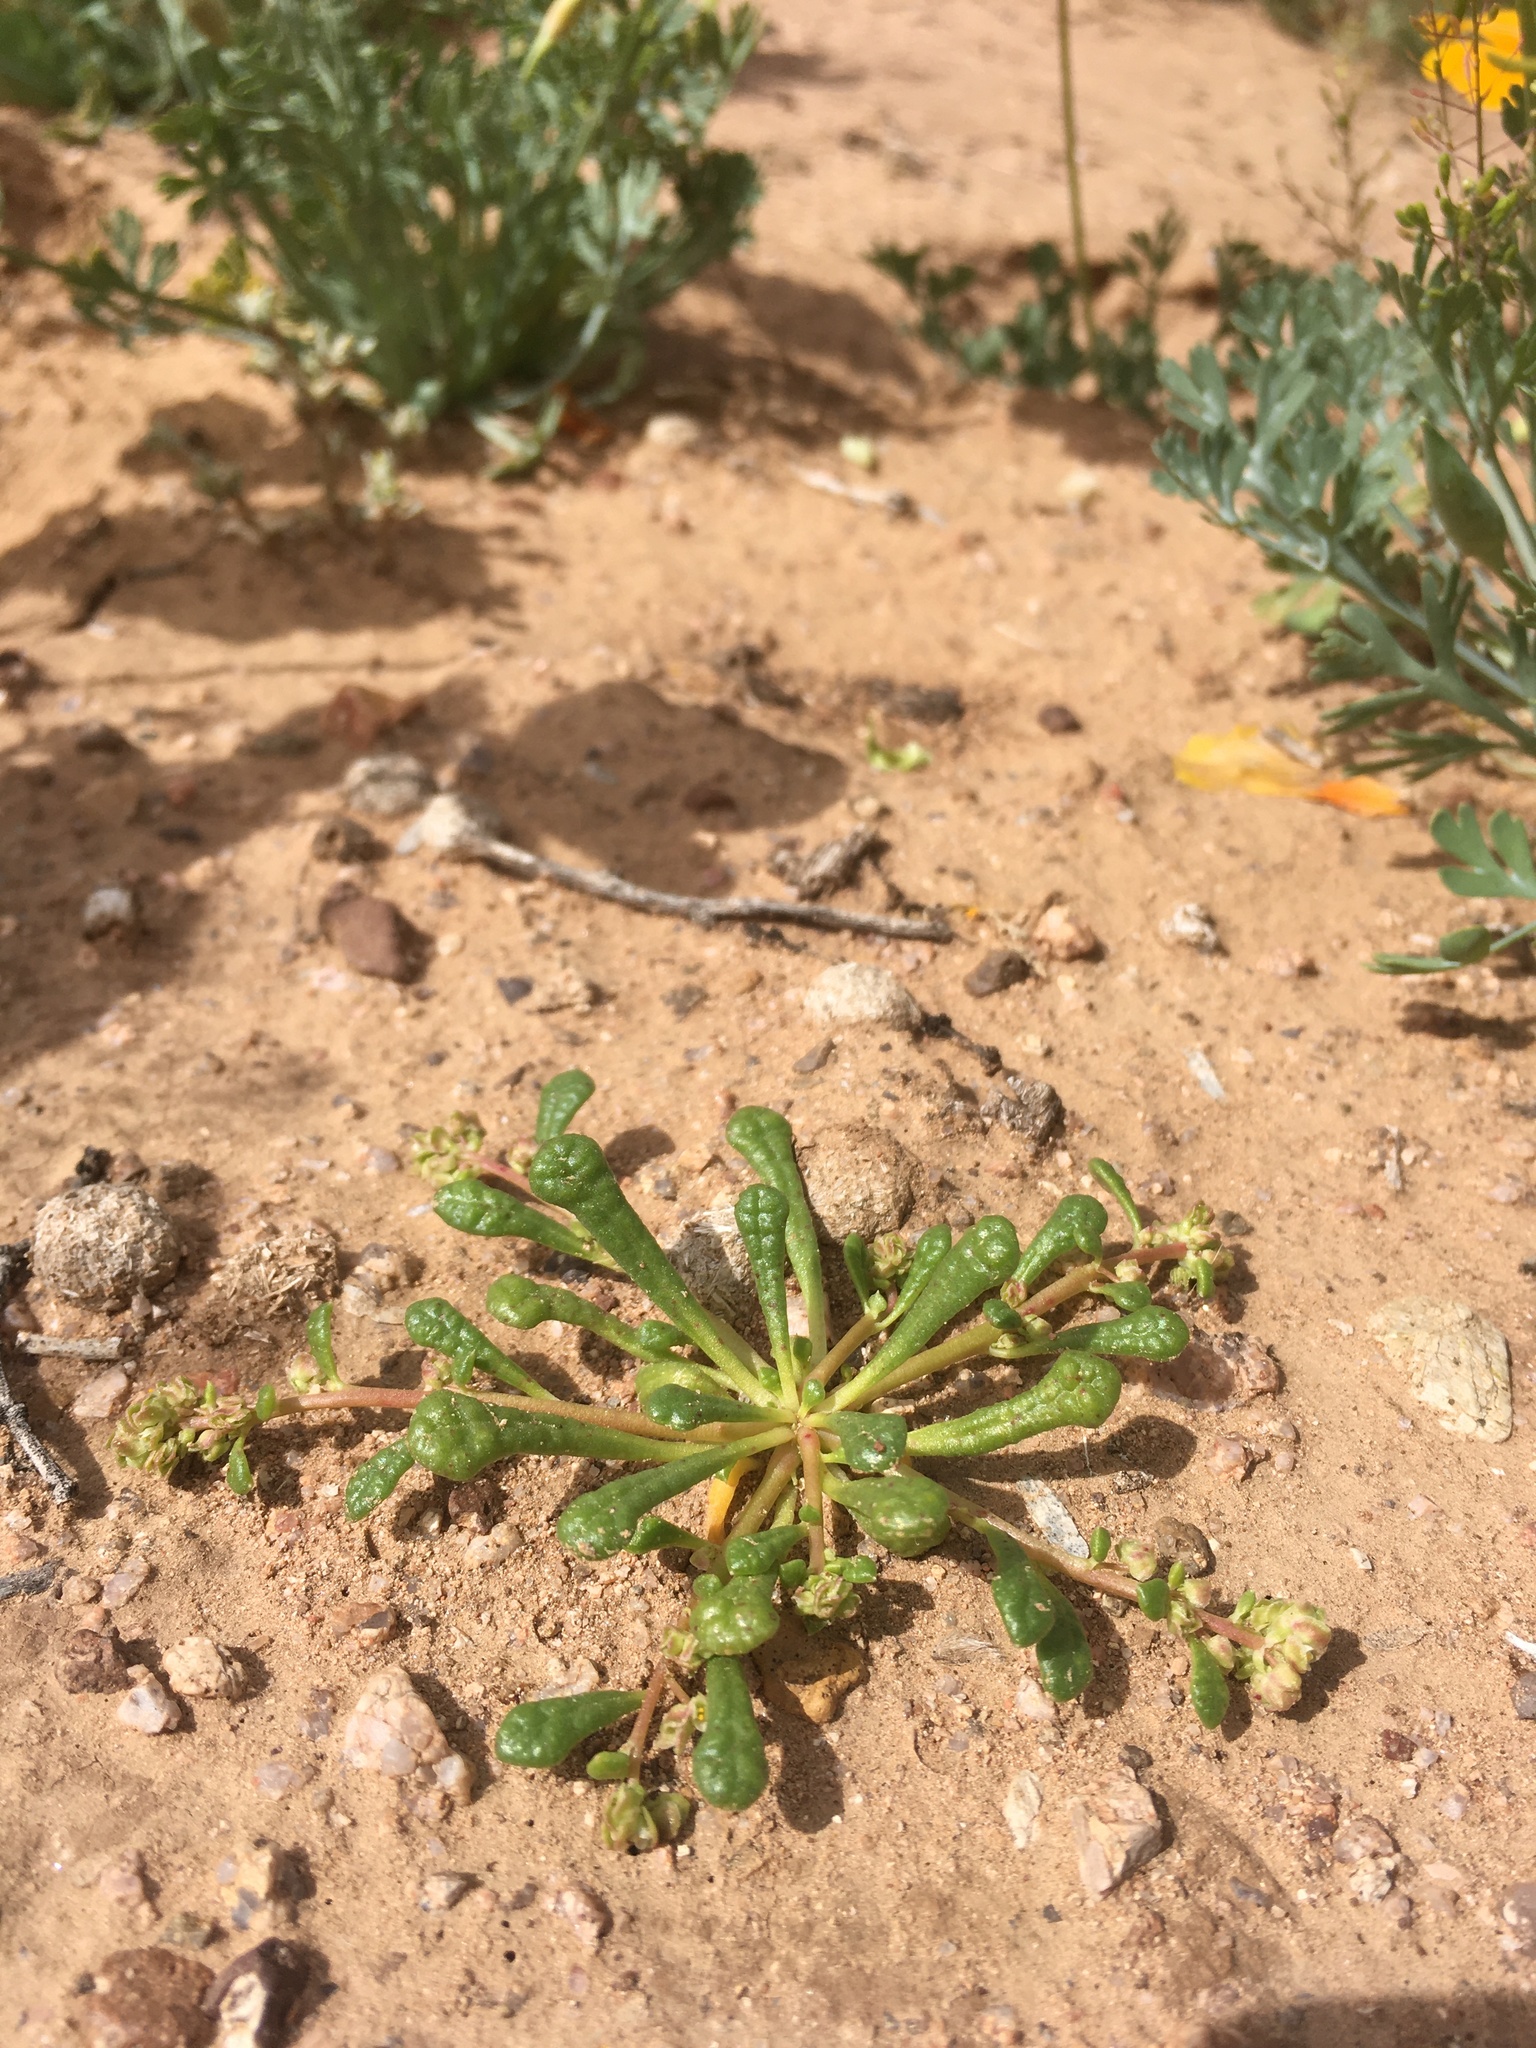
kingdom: Plantae
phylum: Tracheophyta
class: Magnoliopsida
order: Caryophyllales
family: Montiaceae
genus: Calyptridium
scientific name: Calyptridium monandrum
